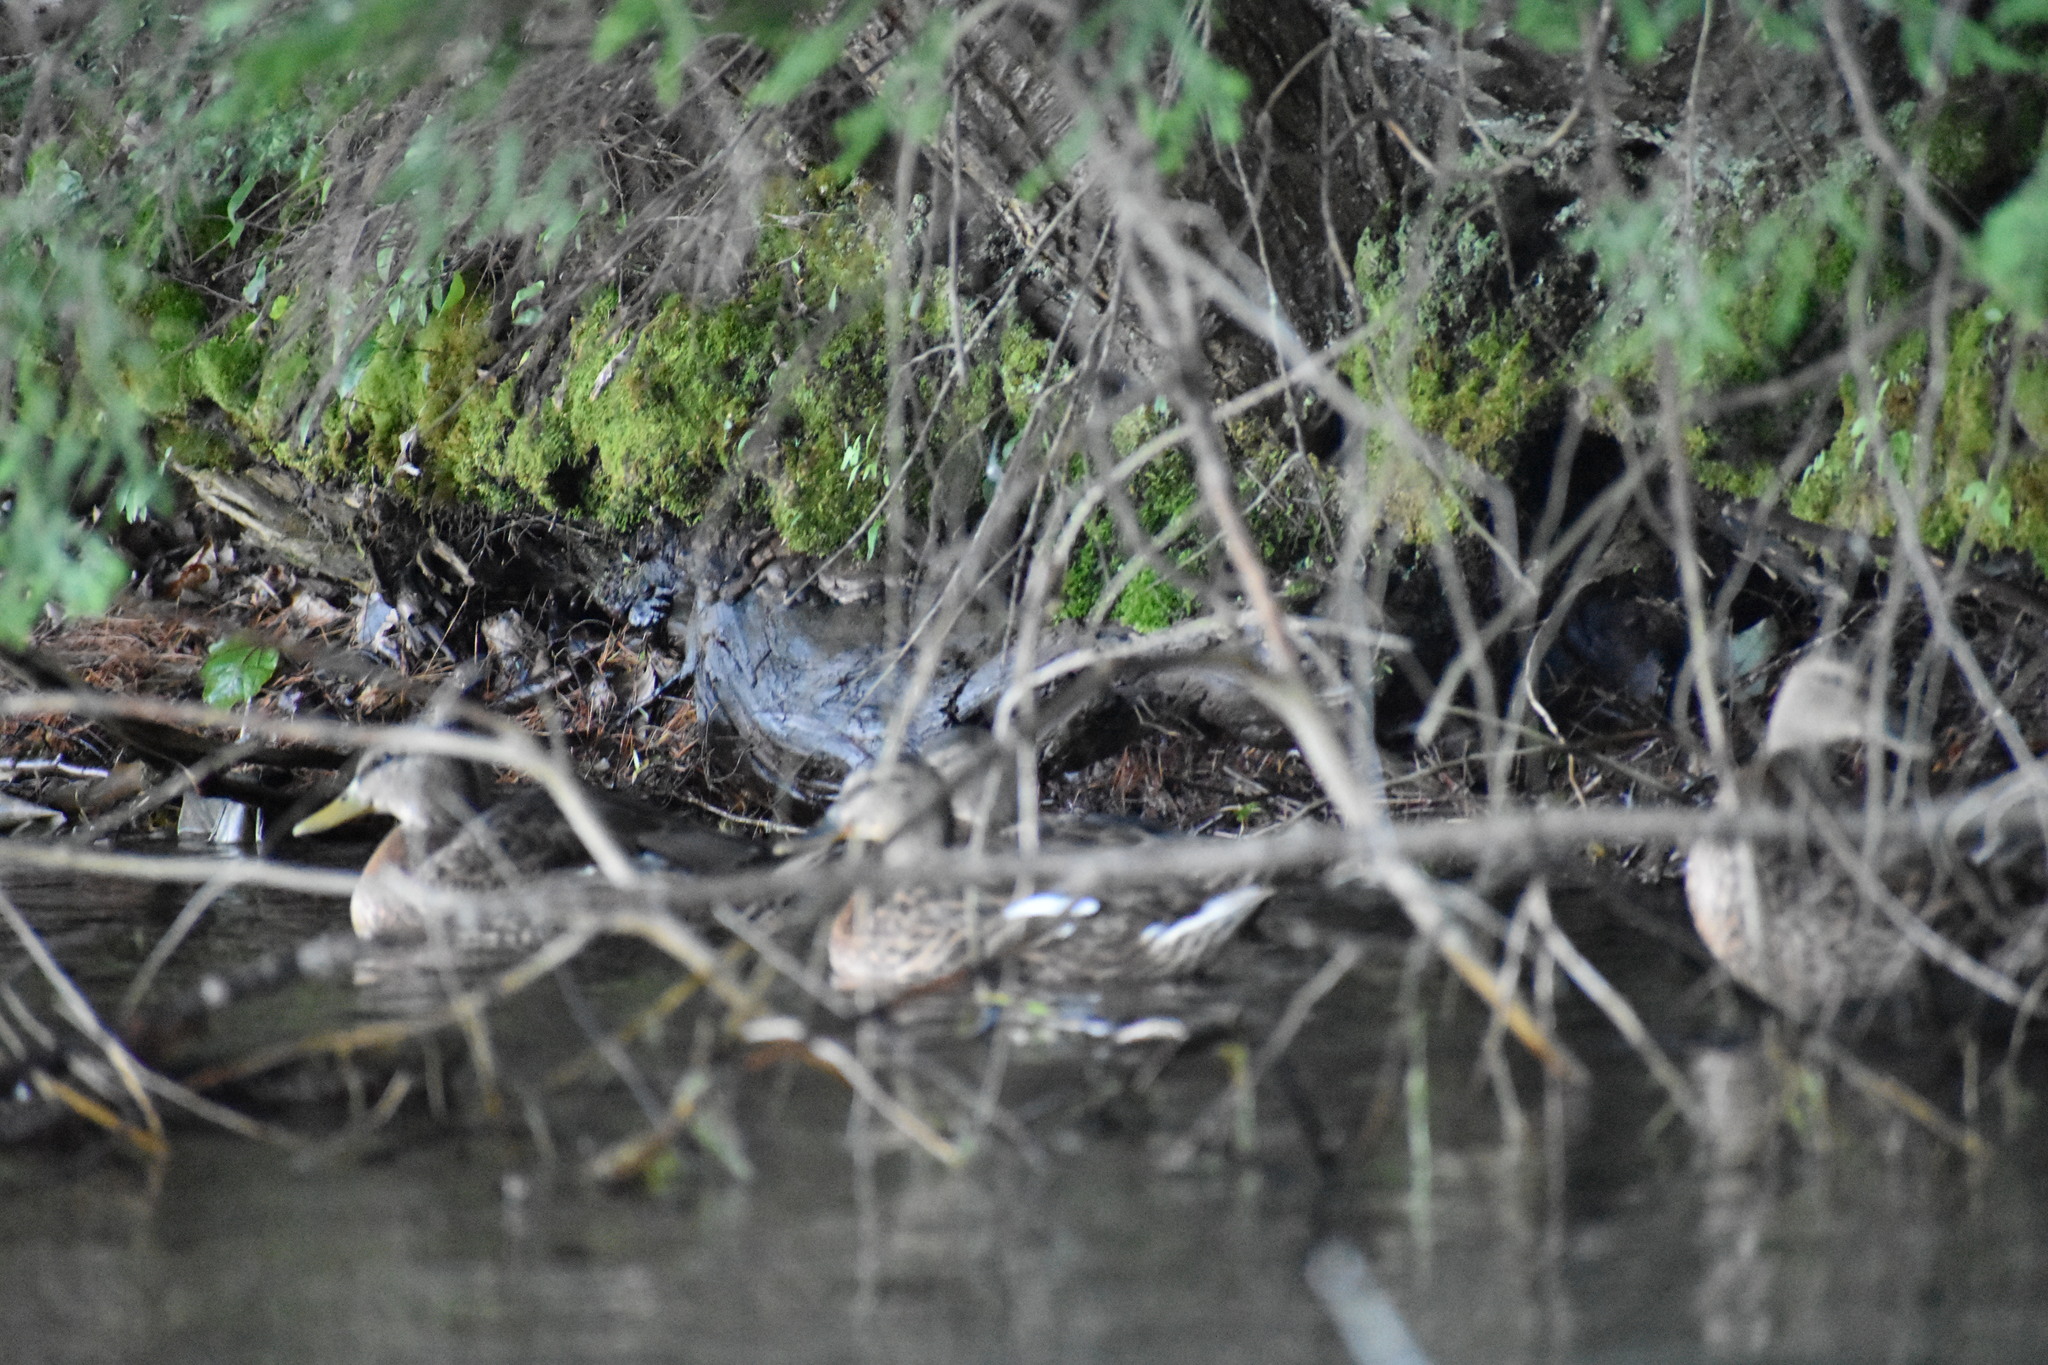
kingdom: Animalia
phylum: Chordata
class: Aves
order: Anseriformes
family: Anatidae
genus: Anas
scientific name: Anas platyrhynchos
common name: Mallard
